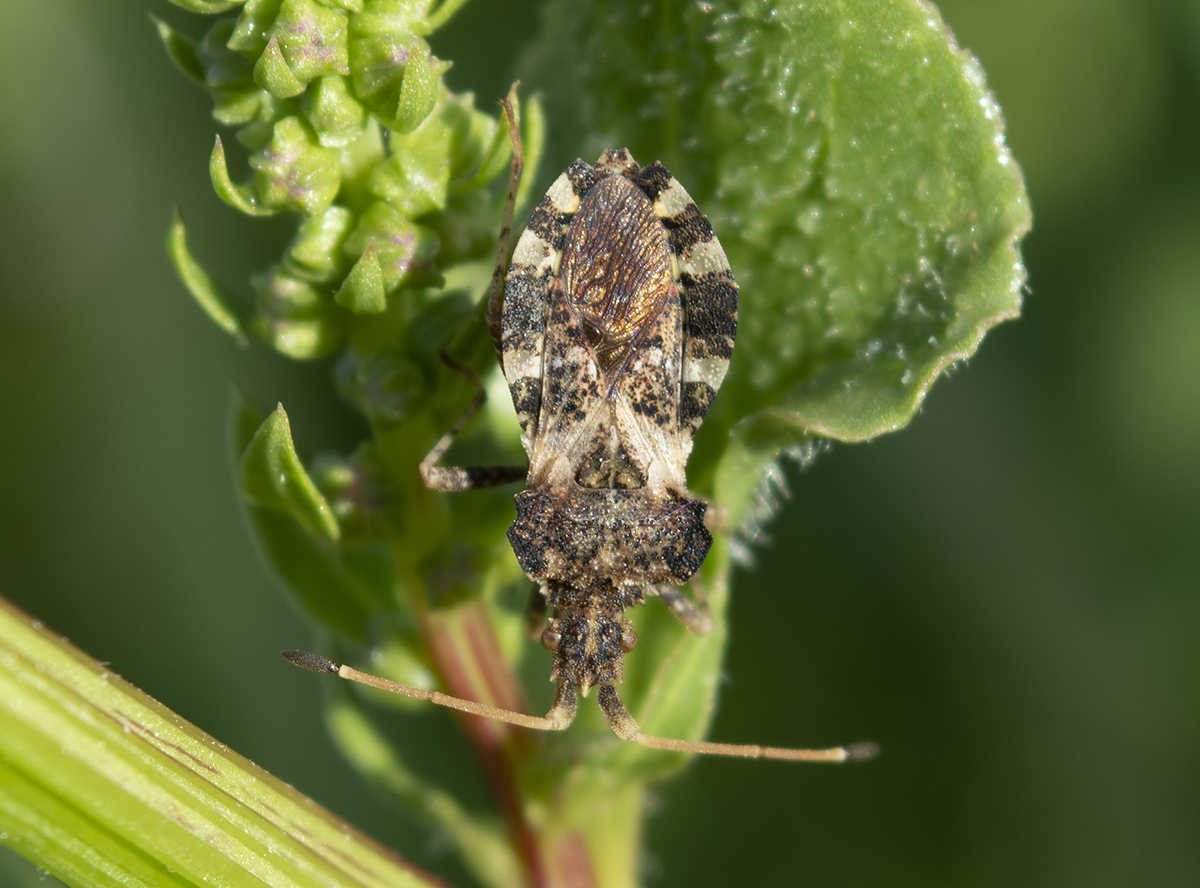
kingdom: Animalia
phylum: Arthropoda
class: Insecta
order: Hemiptera
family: Coreidae
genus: Centrocoris
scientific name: Centrocoris variegatus
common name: Leaf-footed bug
